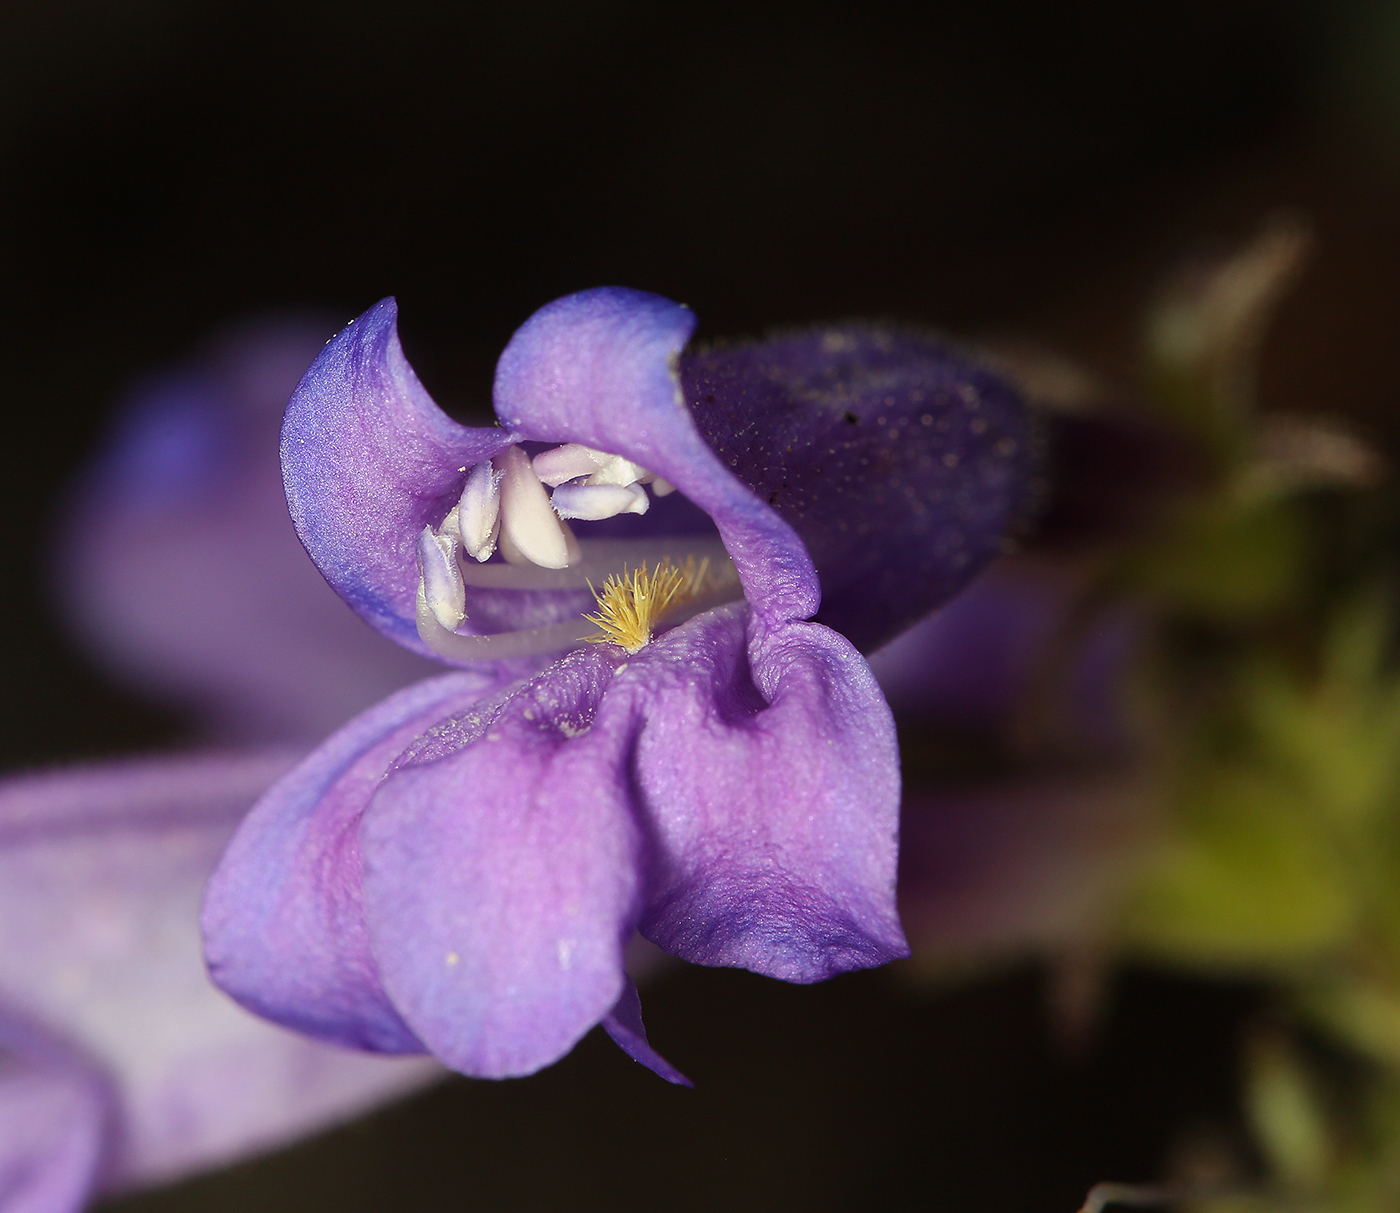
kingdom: Plantae
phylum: Tracheophyta
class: Magnoliopsida
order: Lamiales
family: Plantaginaceae
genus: Penstemon
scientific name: Penstemon papillatus
